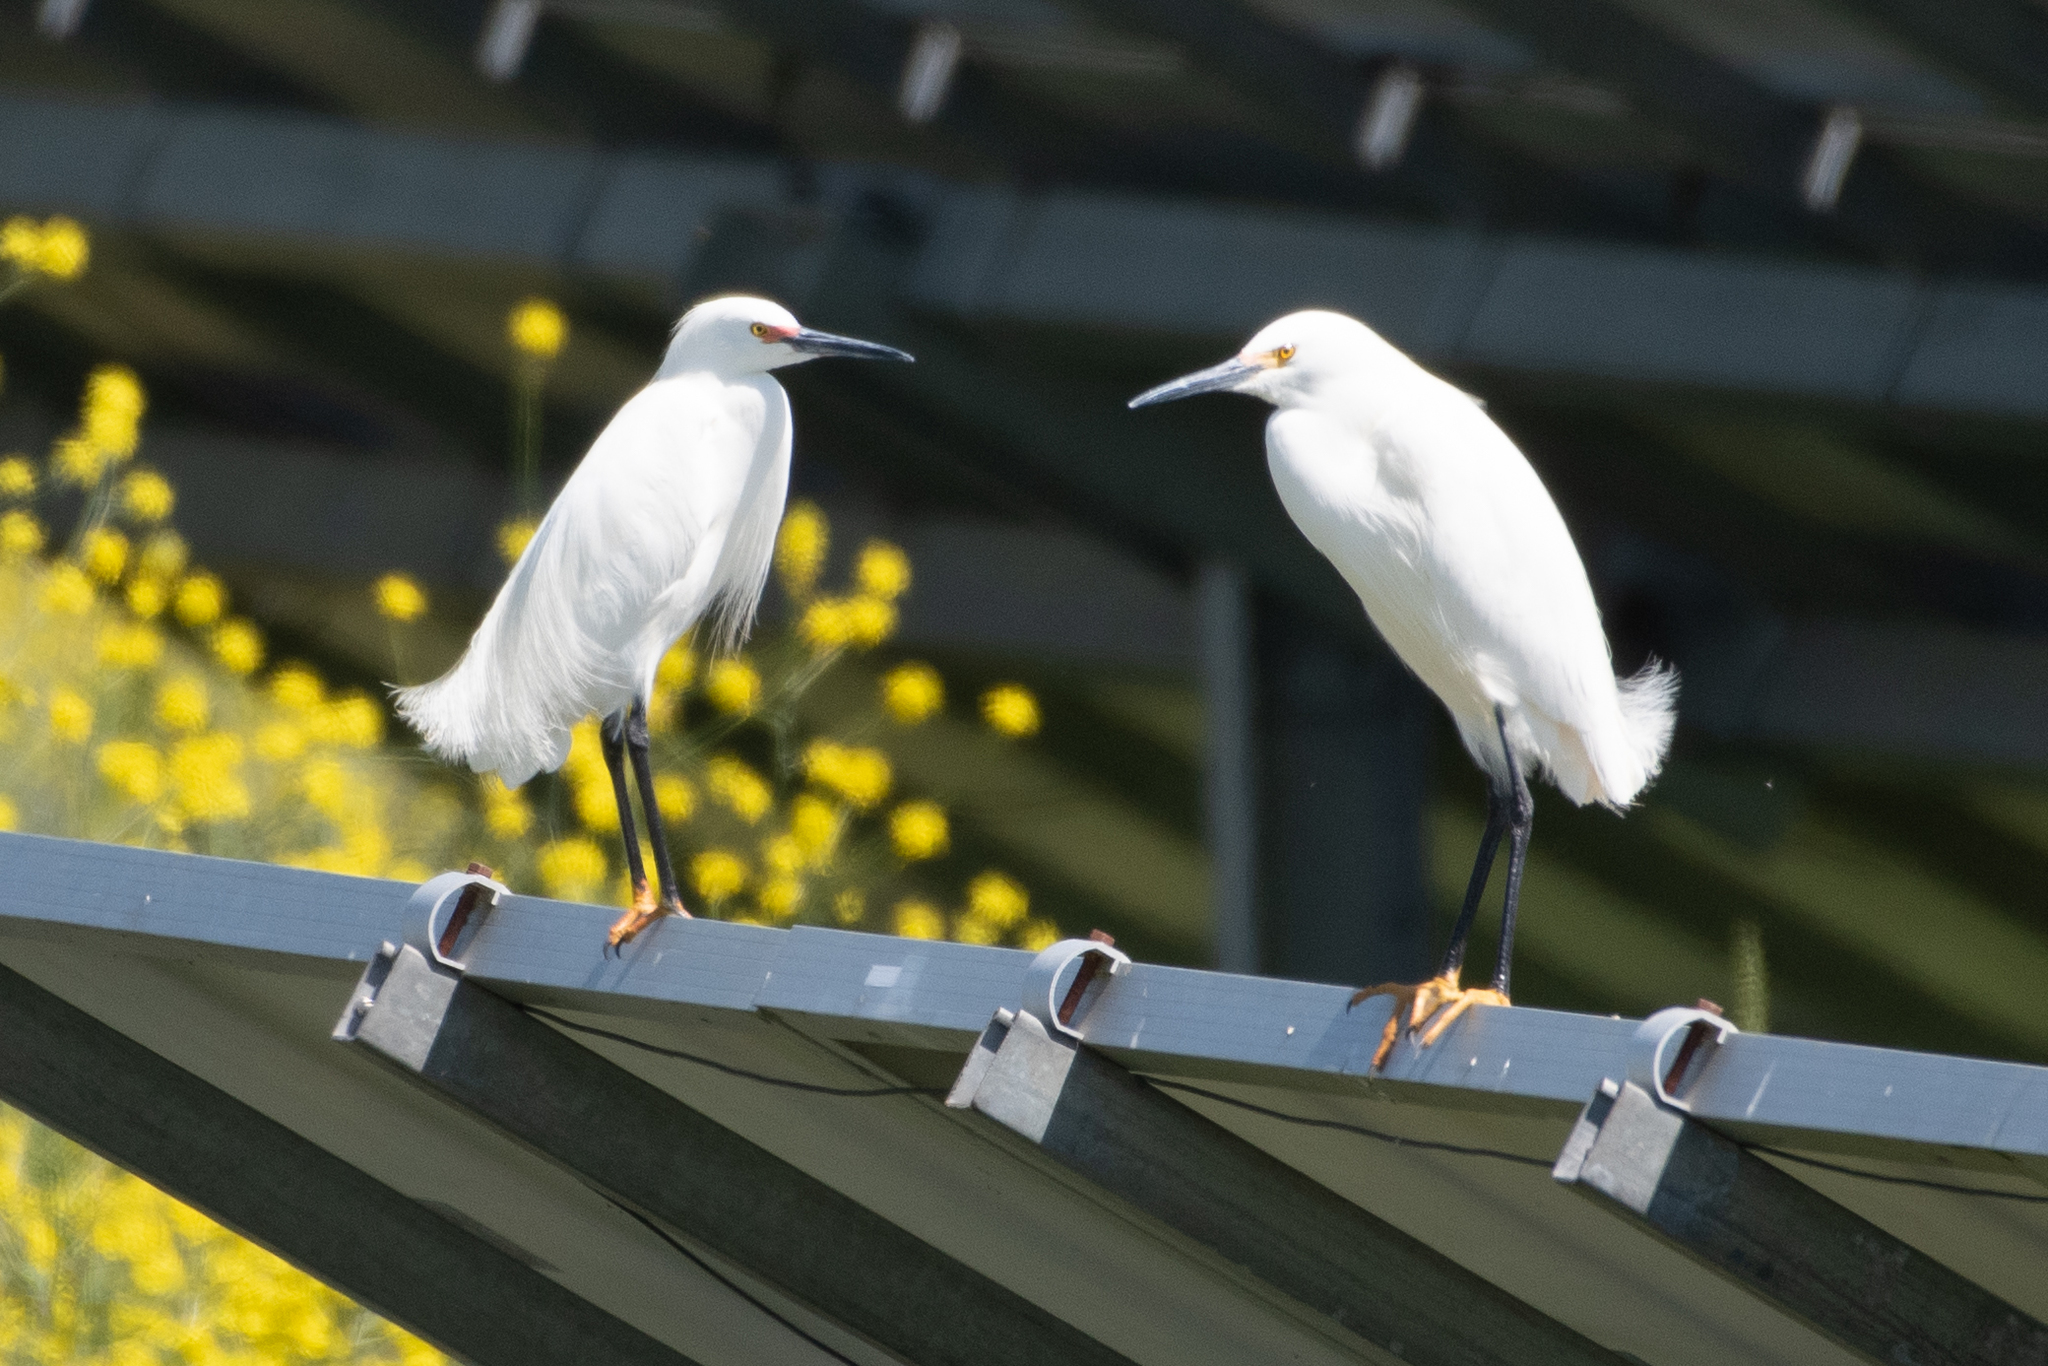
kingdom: Animalia
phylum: Chordata
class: Aves
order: Pelecaniformes
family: Ardeidae
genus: Egretta
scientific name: Egretta thula
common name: Snowy egret
